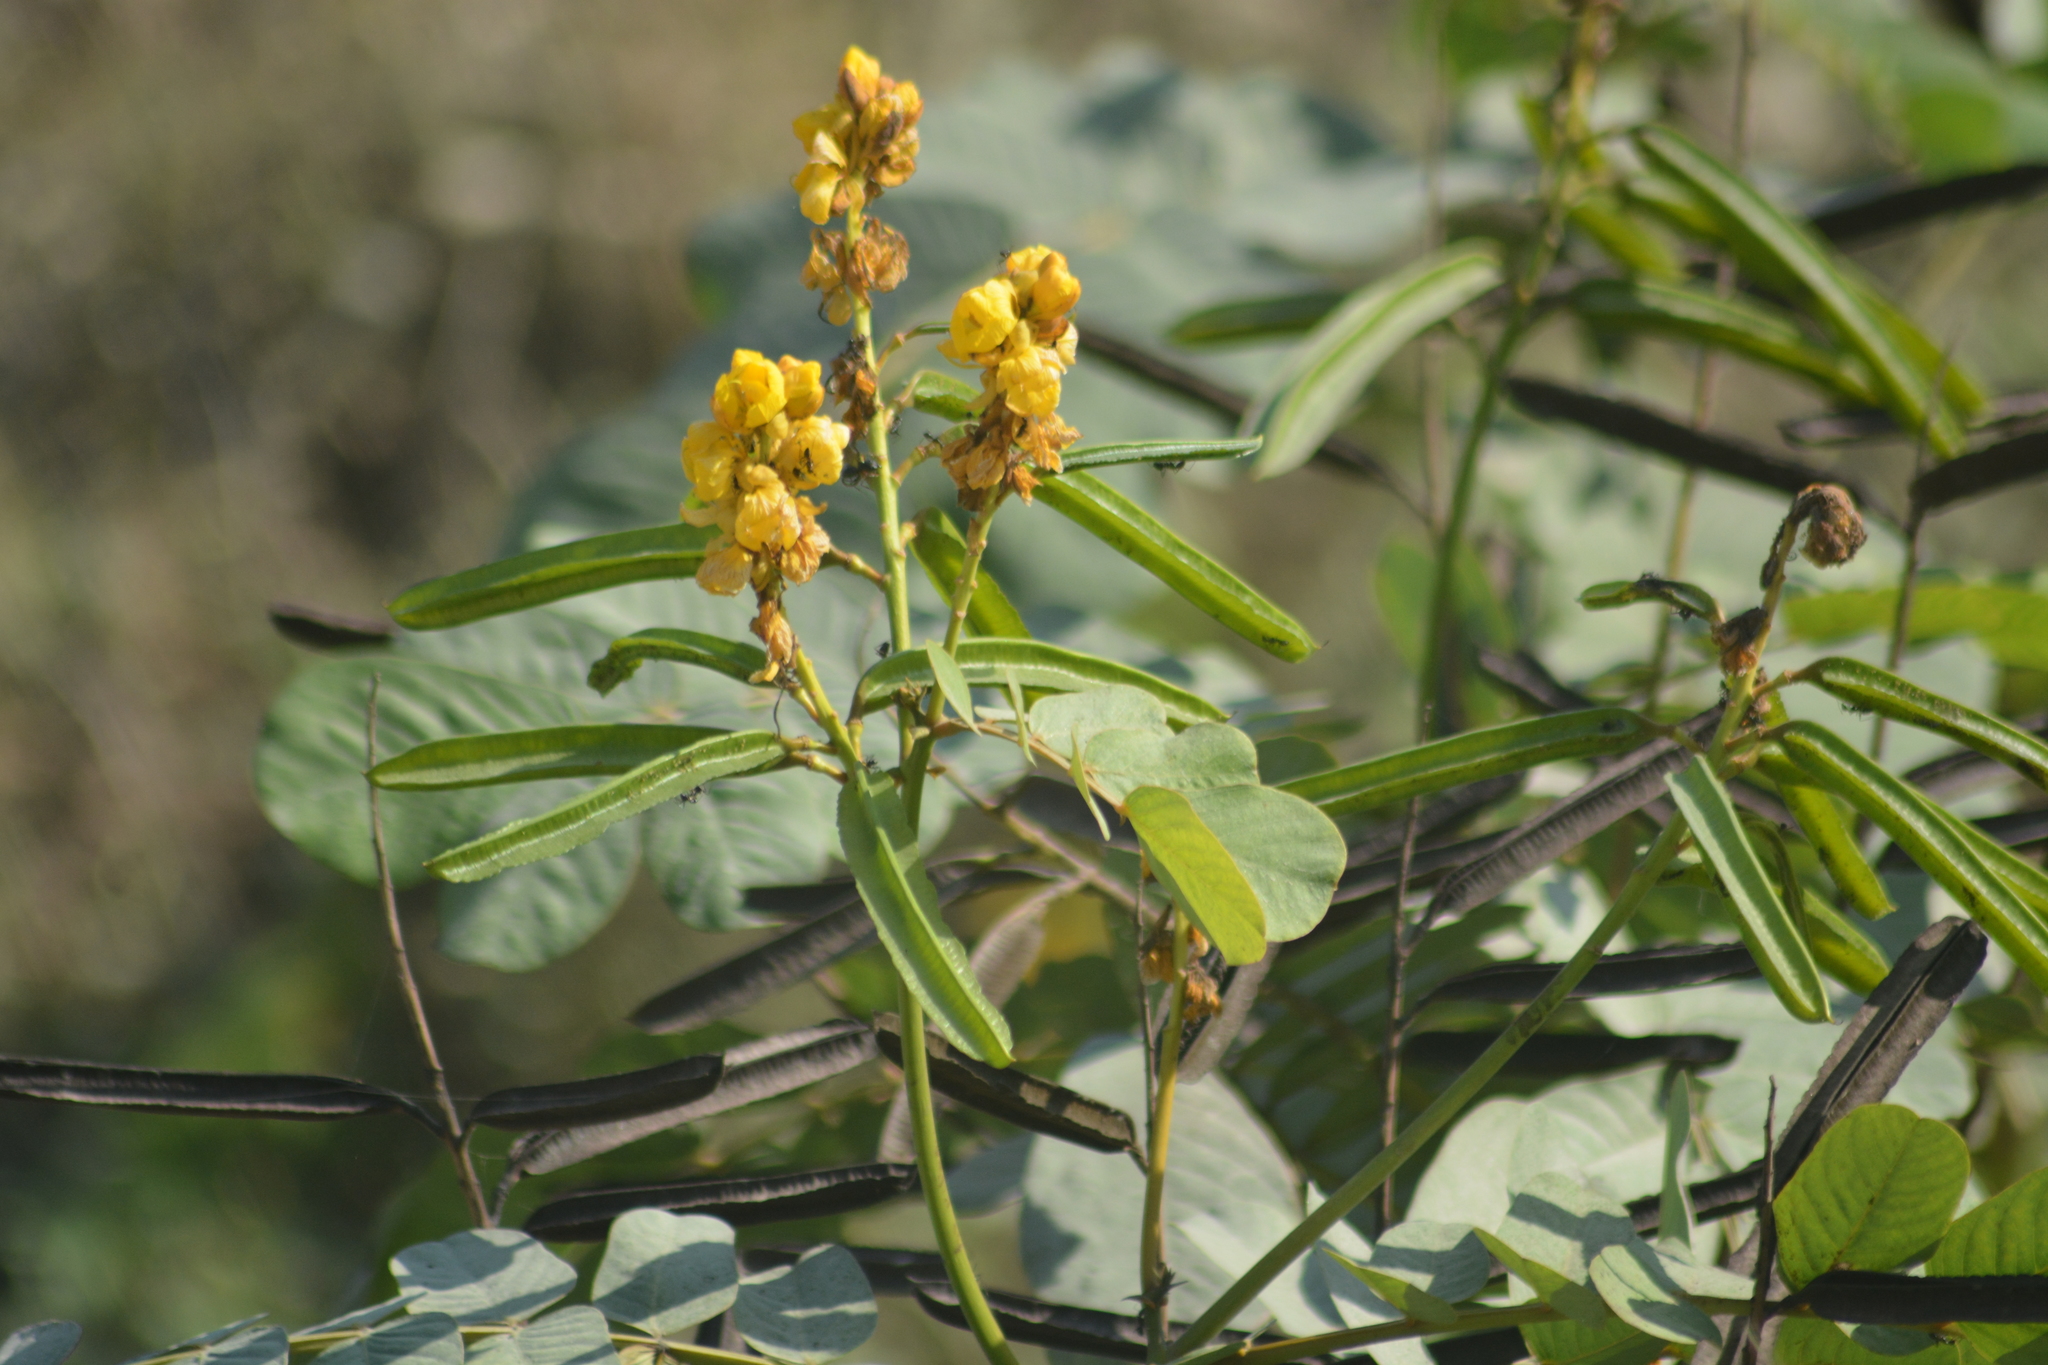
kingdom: Plantae
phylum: Tracheophyta
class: Magnoliopsida
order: Fabales
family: Fabaceae
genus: Senna
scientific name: Senna alata
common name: Emperor's candlesticks
